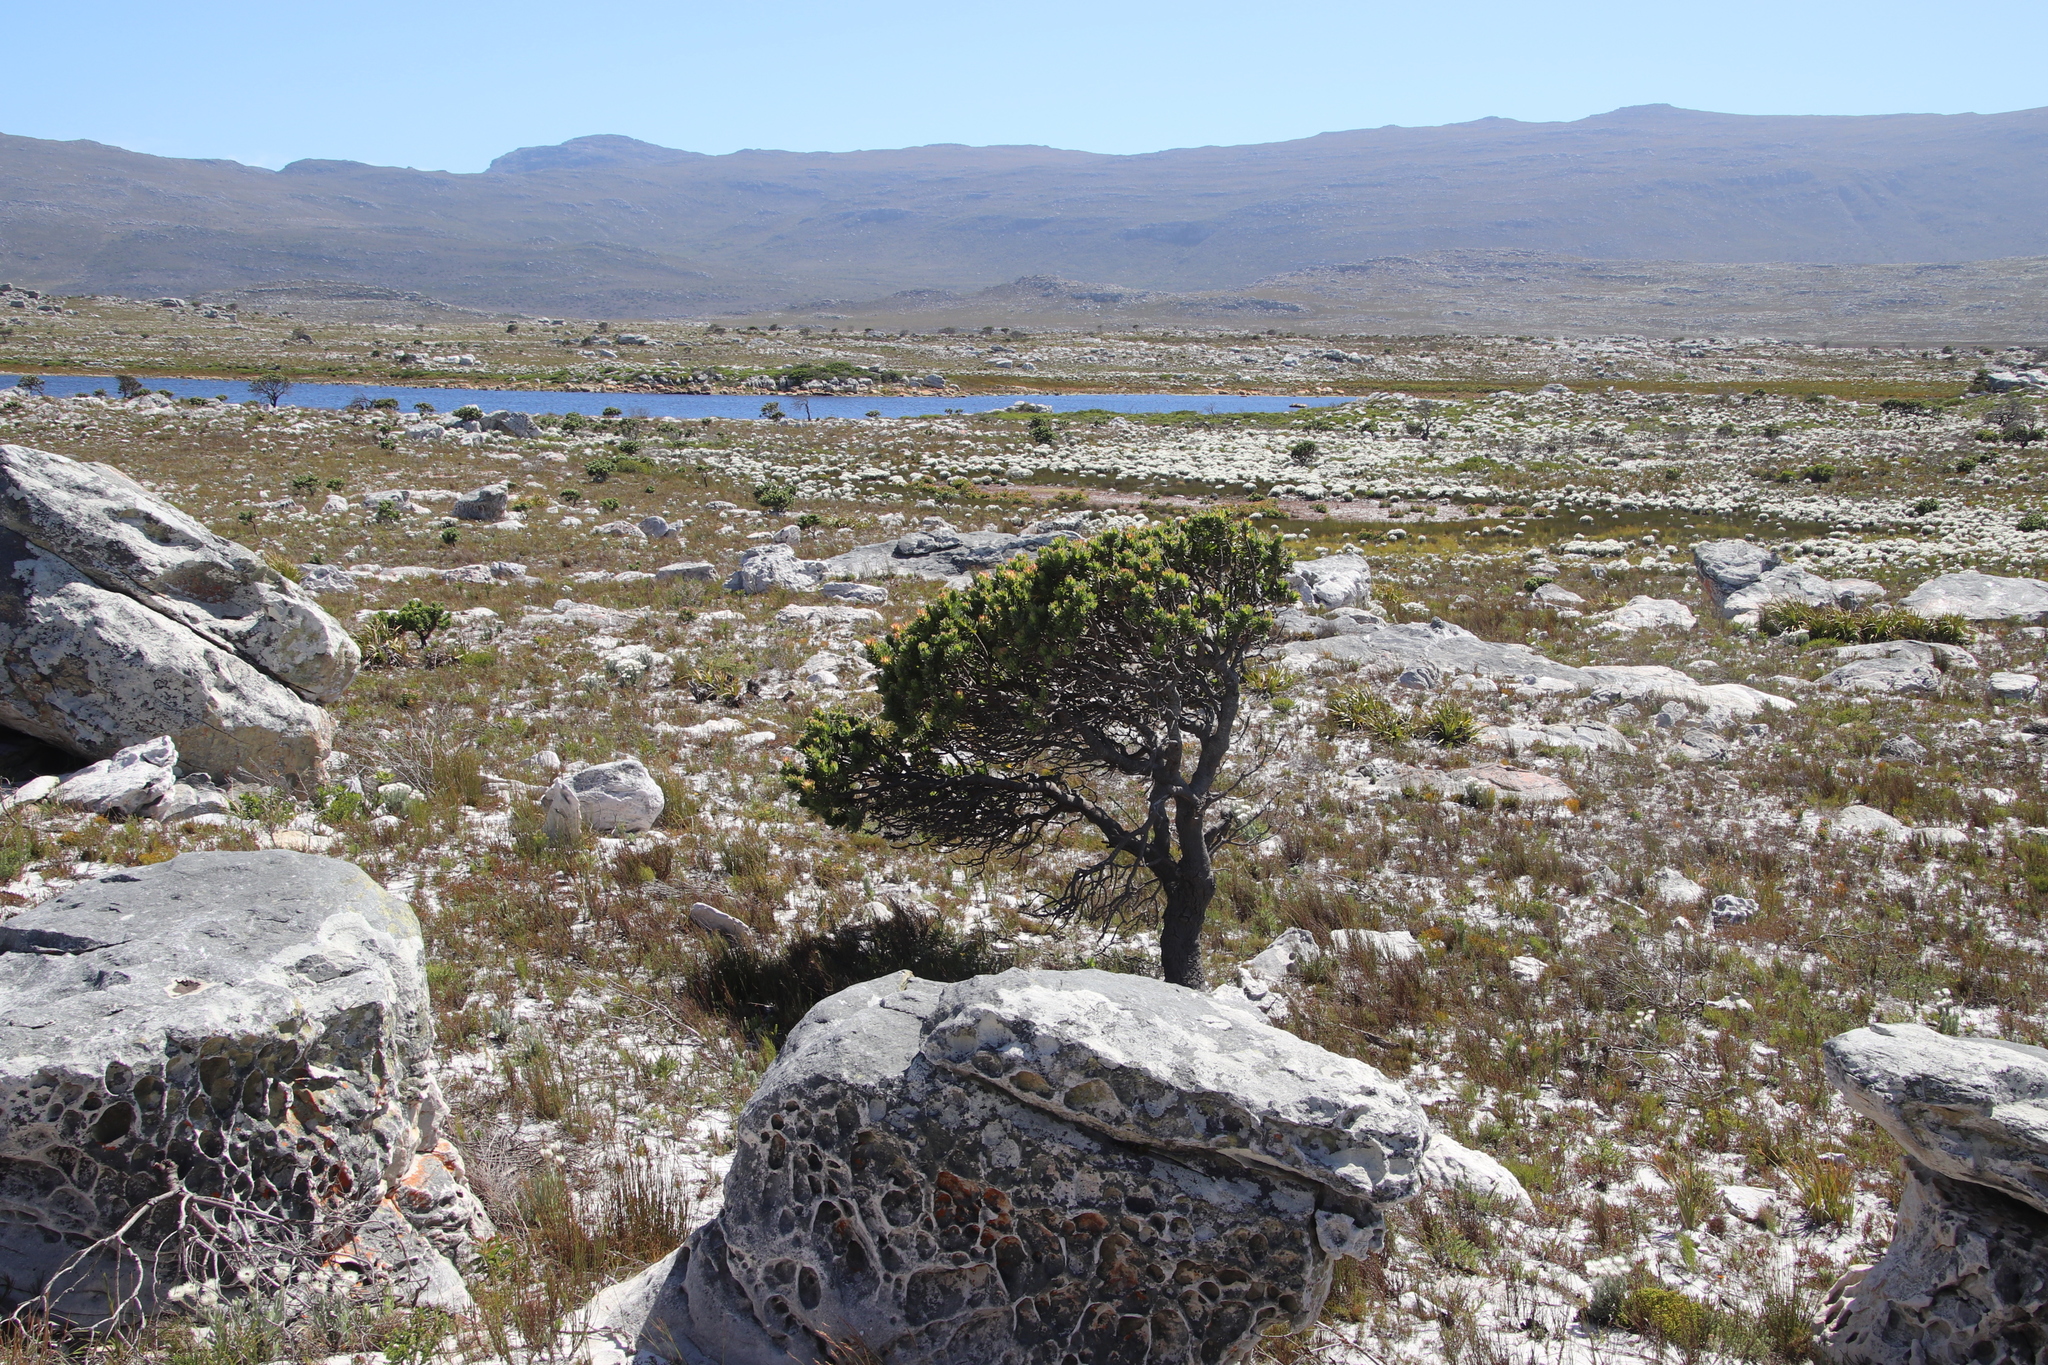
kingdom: Plantae
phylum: Tracheophyta
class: Magnoliopsida
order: Proteales
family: Proteaceae
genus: Mimetes
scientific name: Mimetes fimbriifolius
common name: Fringed bottlebrush
